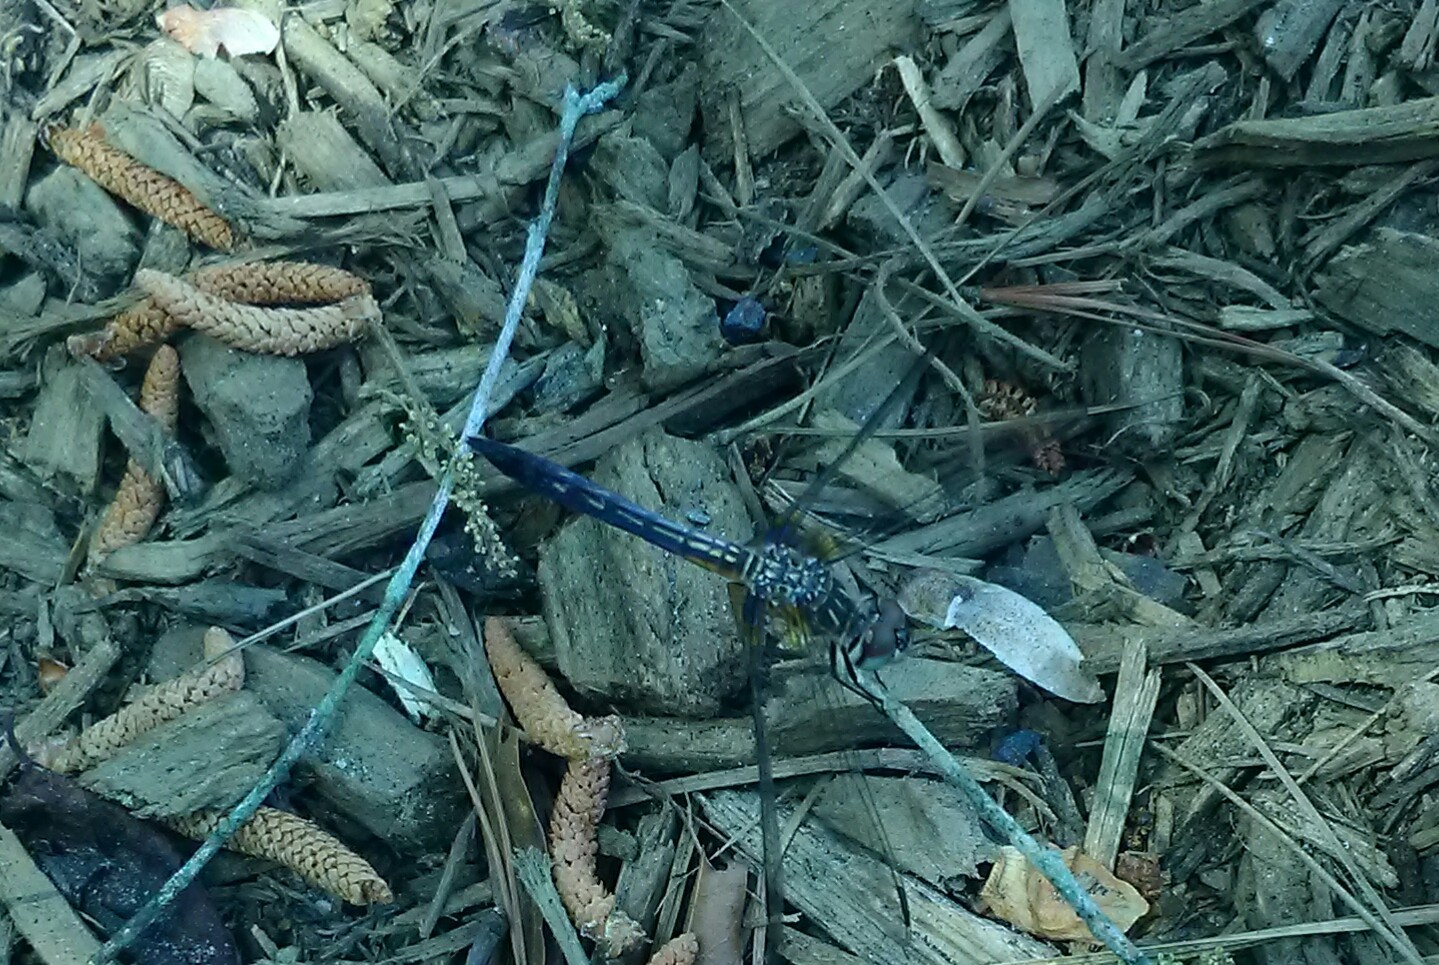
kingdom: Animalia
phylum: Arthropoda
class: Insecta
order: Odonata
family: Libellulidae
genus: Pachydiplax
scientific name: Pachydiplax longipennis
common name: Blue dasher
